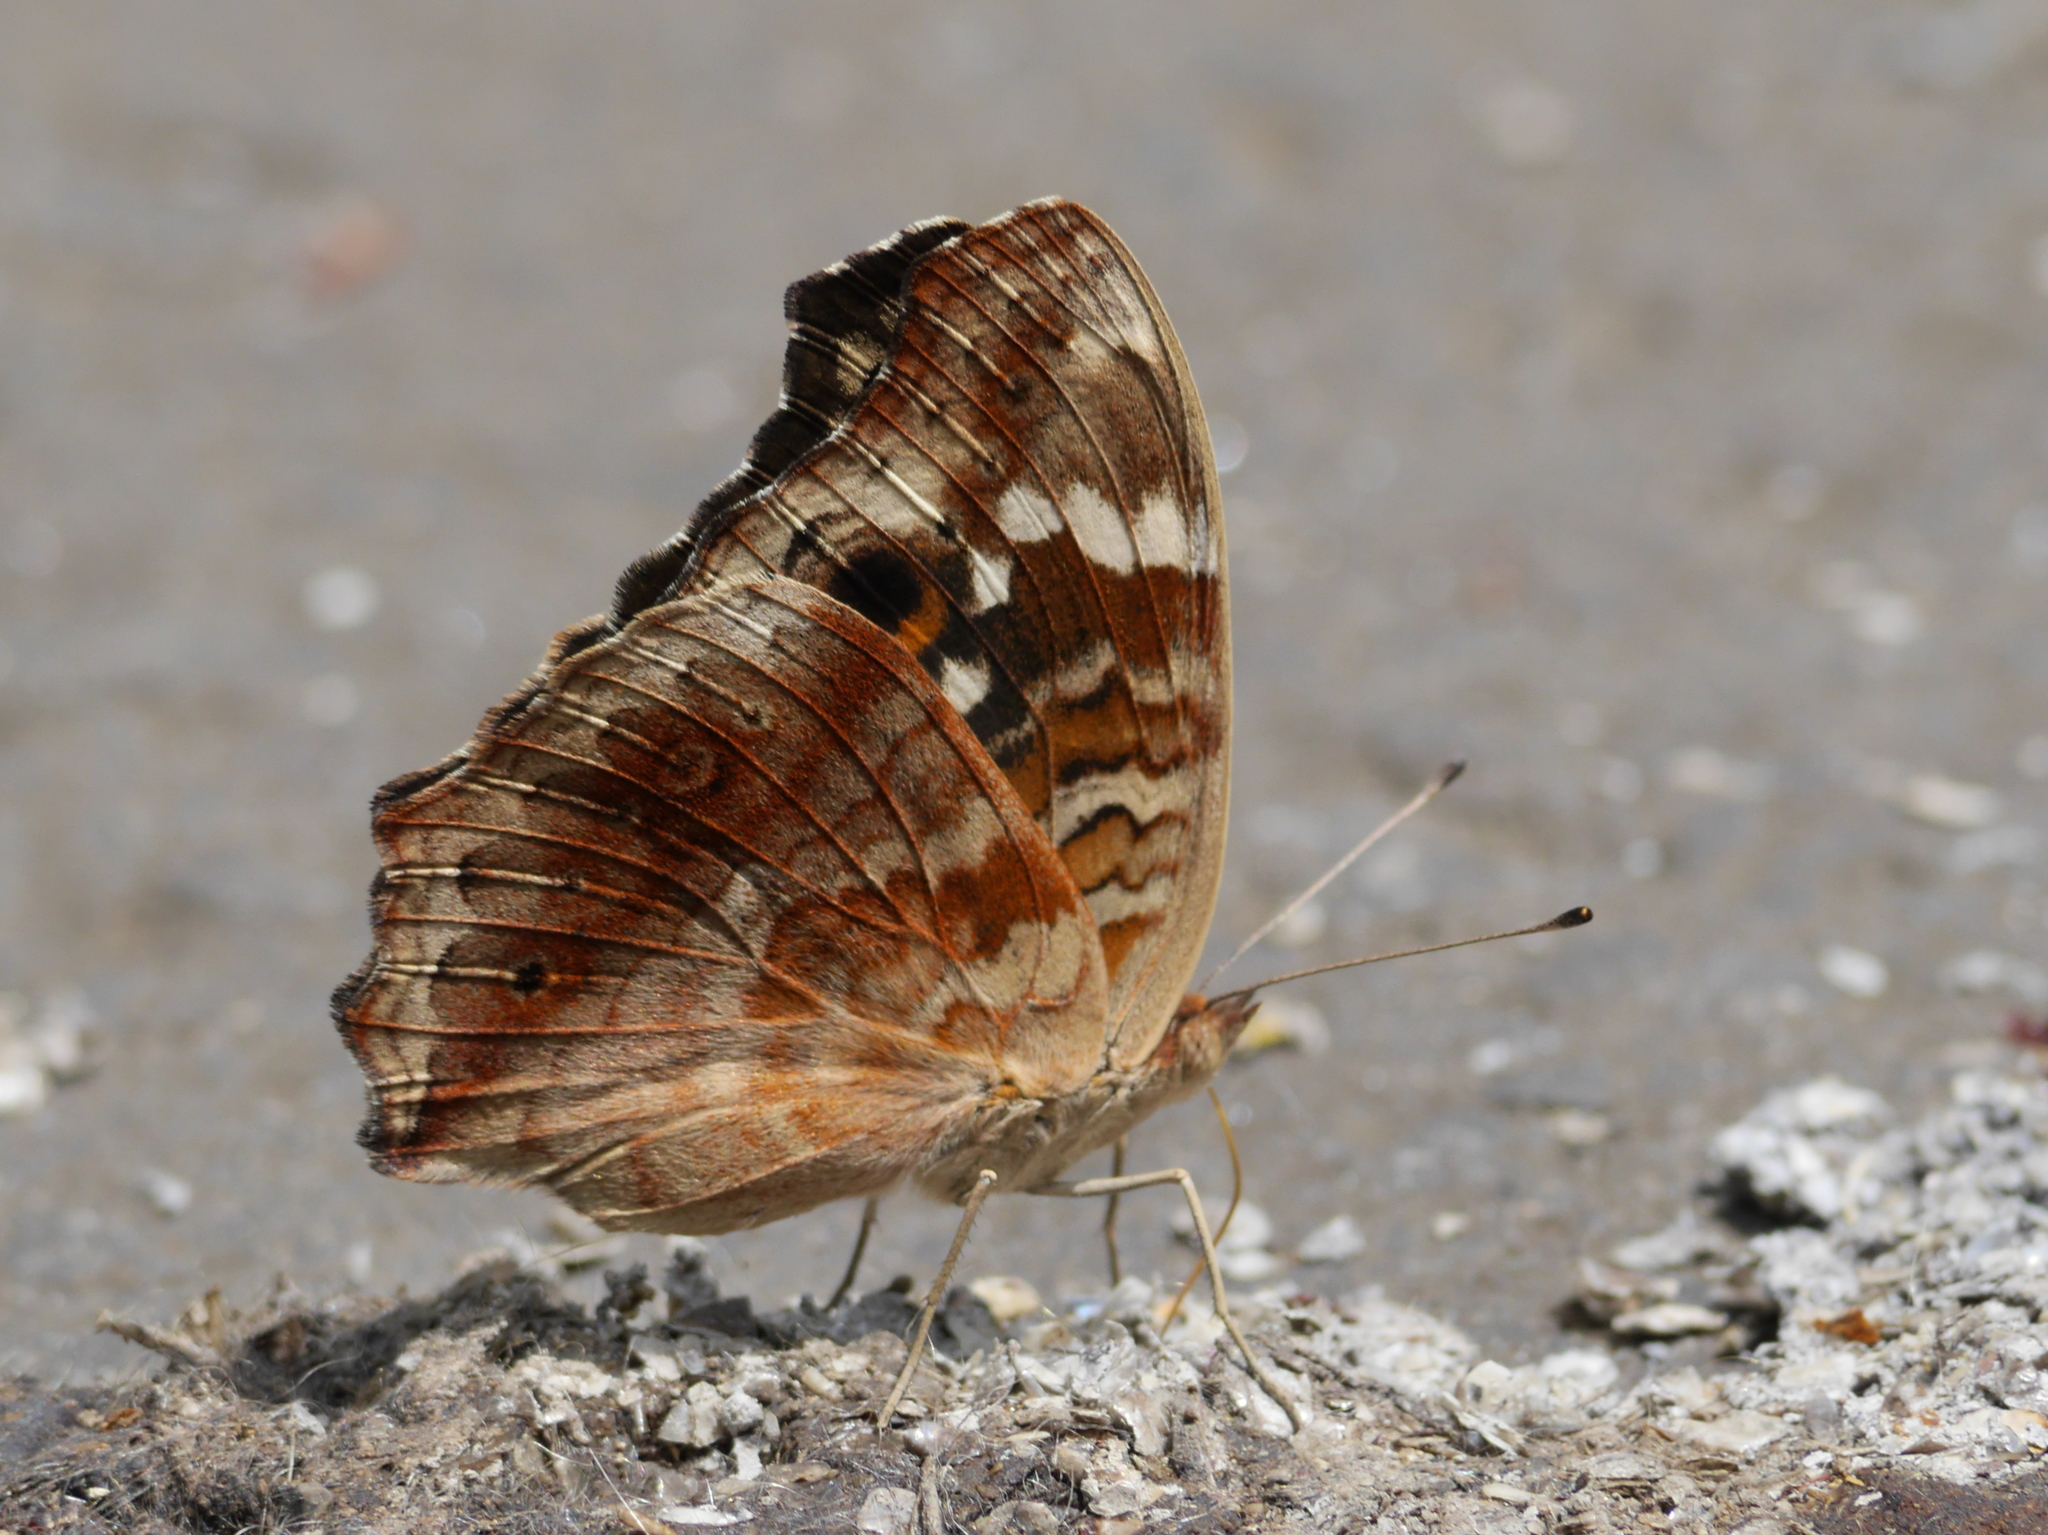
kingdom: Animalia
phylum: Arthropoda
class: Insecta
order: Lepidoptera
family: Nymphalidae
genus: Junonia
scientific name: Junonia erigone
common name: Northern argus
